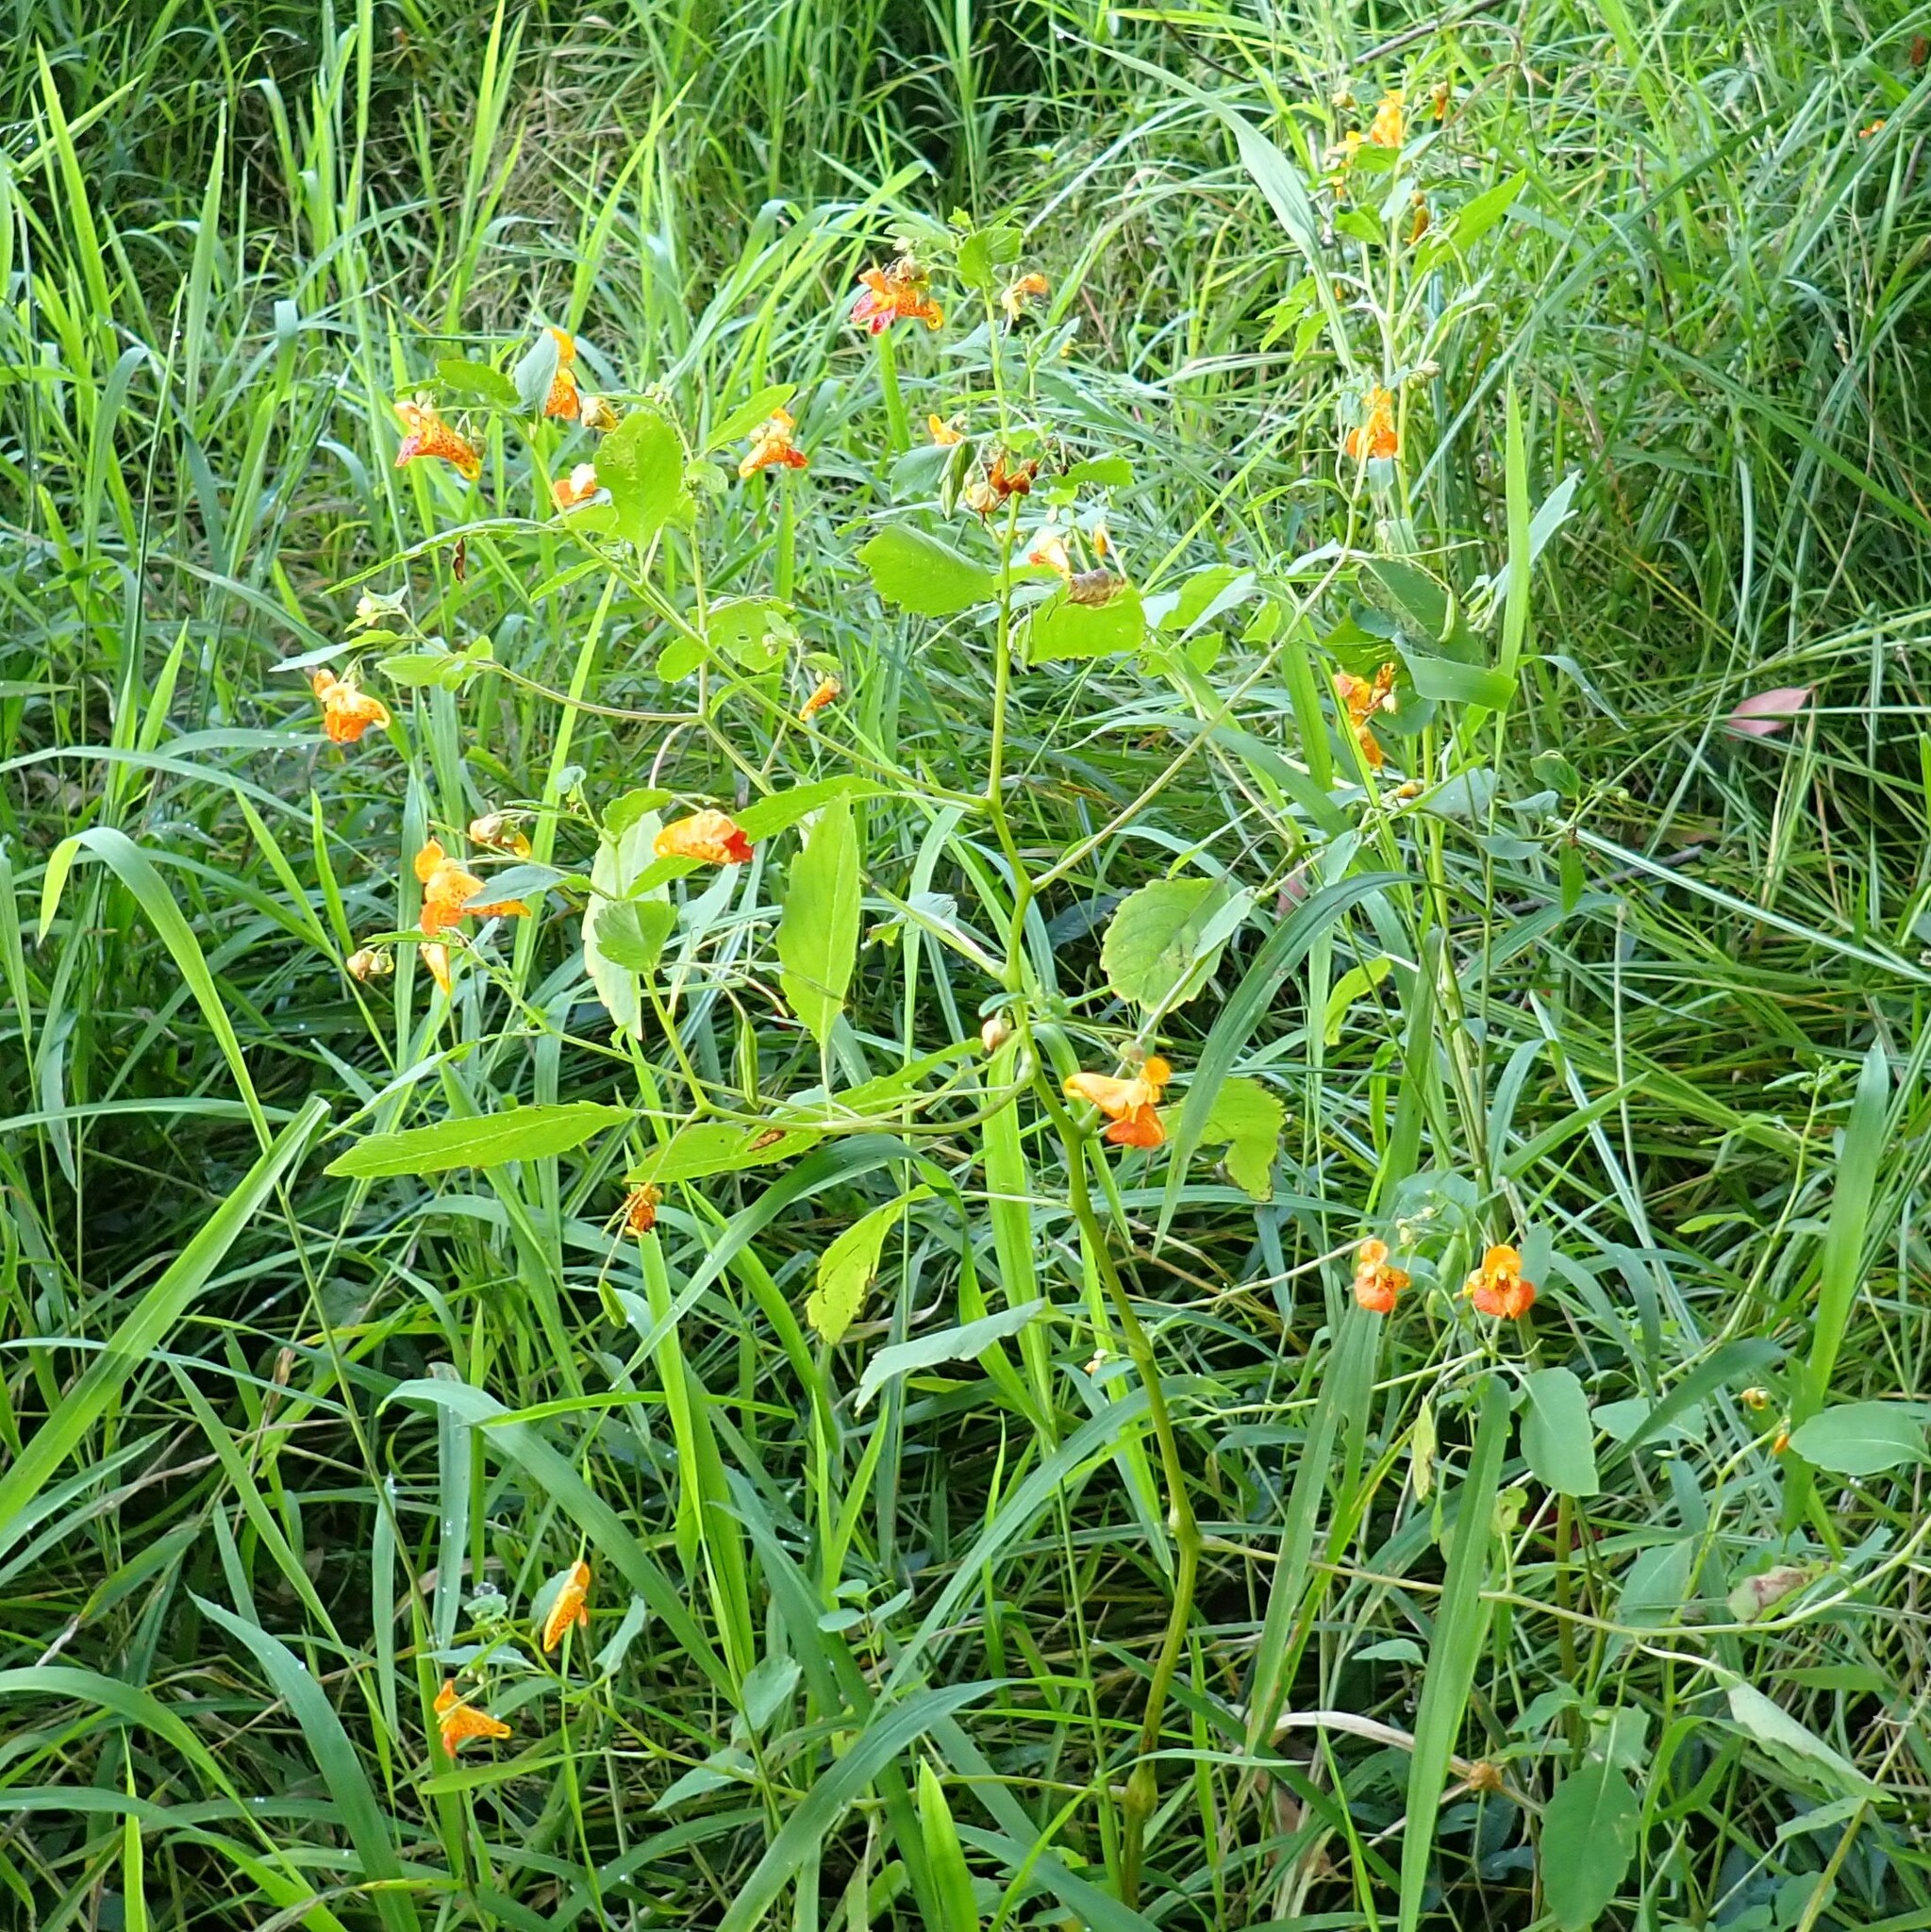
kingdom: Plantae
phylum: Tracheophyta
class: Magnoliopsida
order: Ericales
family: Balsaminaceae
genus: Impatiens
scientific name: Impatiens capensis
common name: Orange balsam
